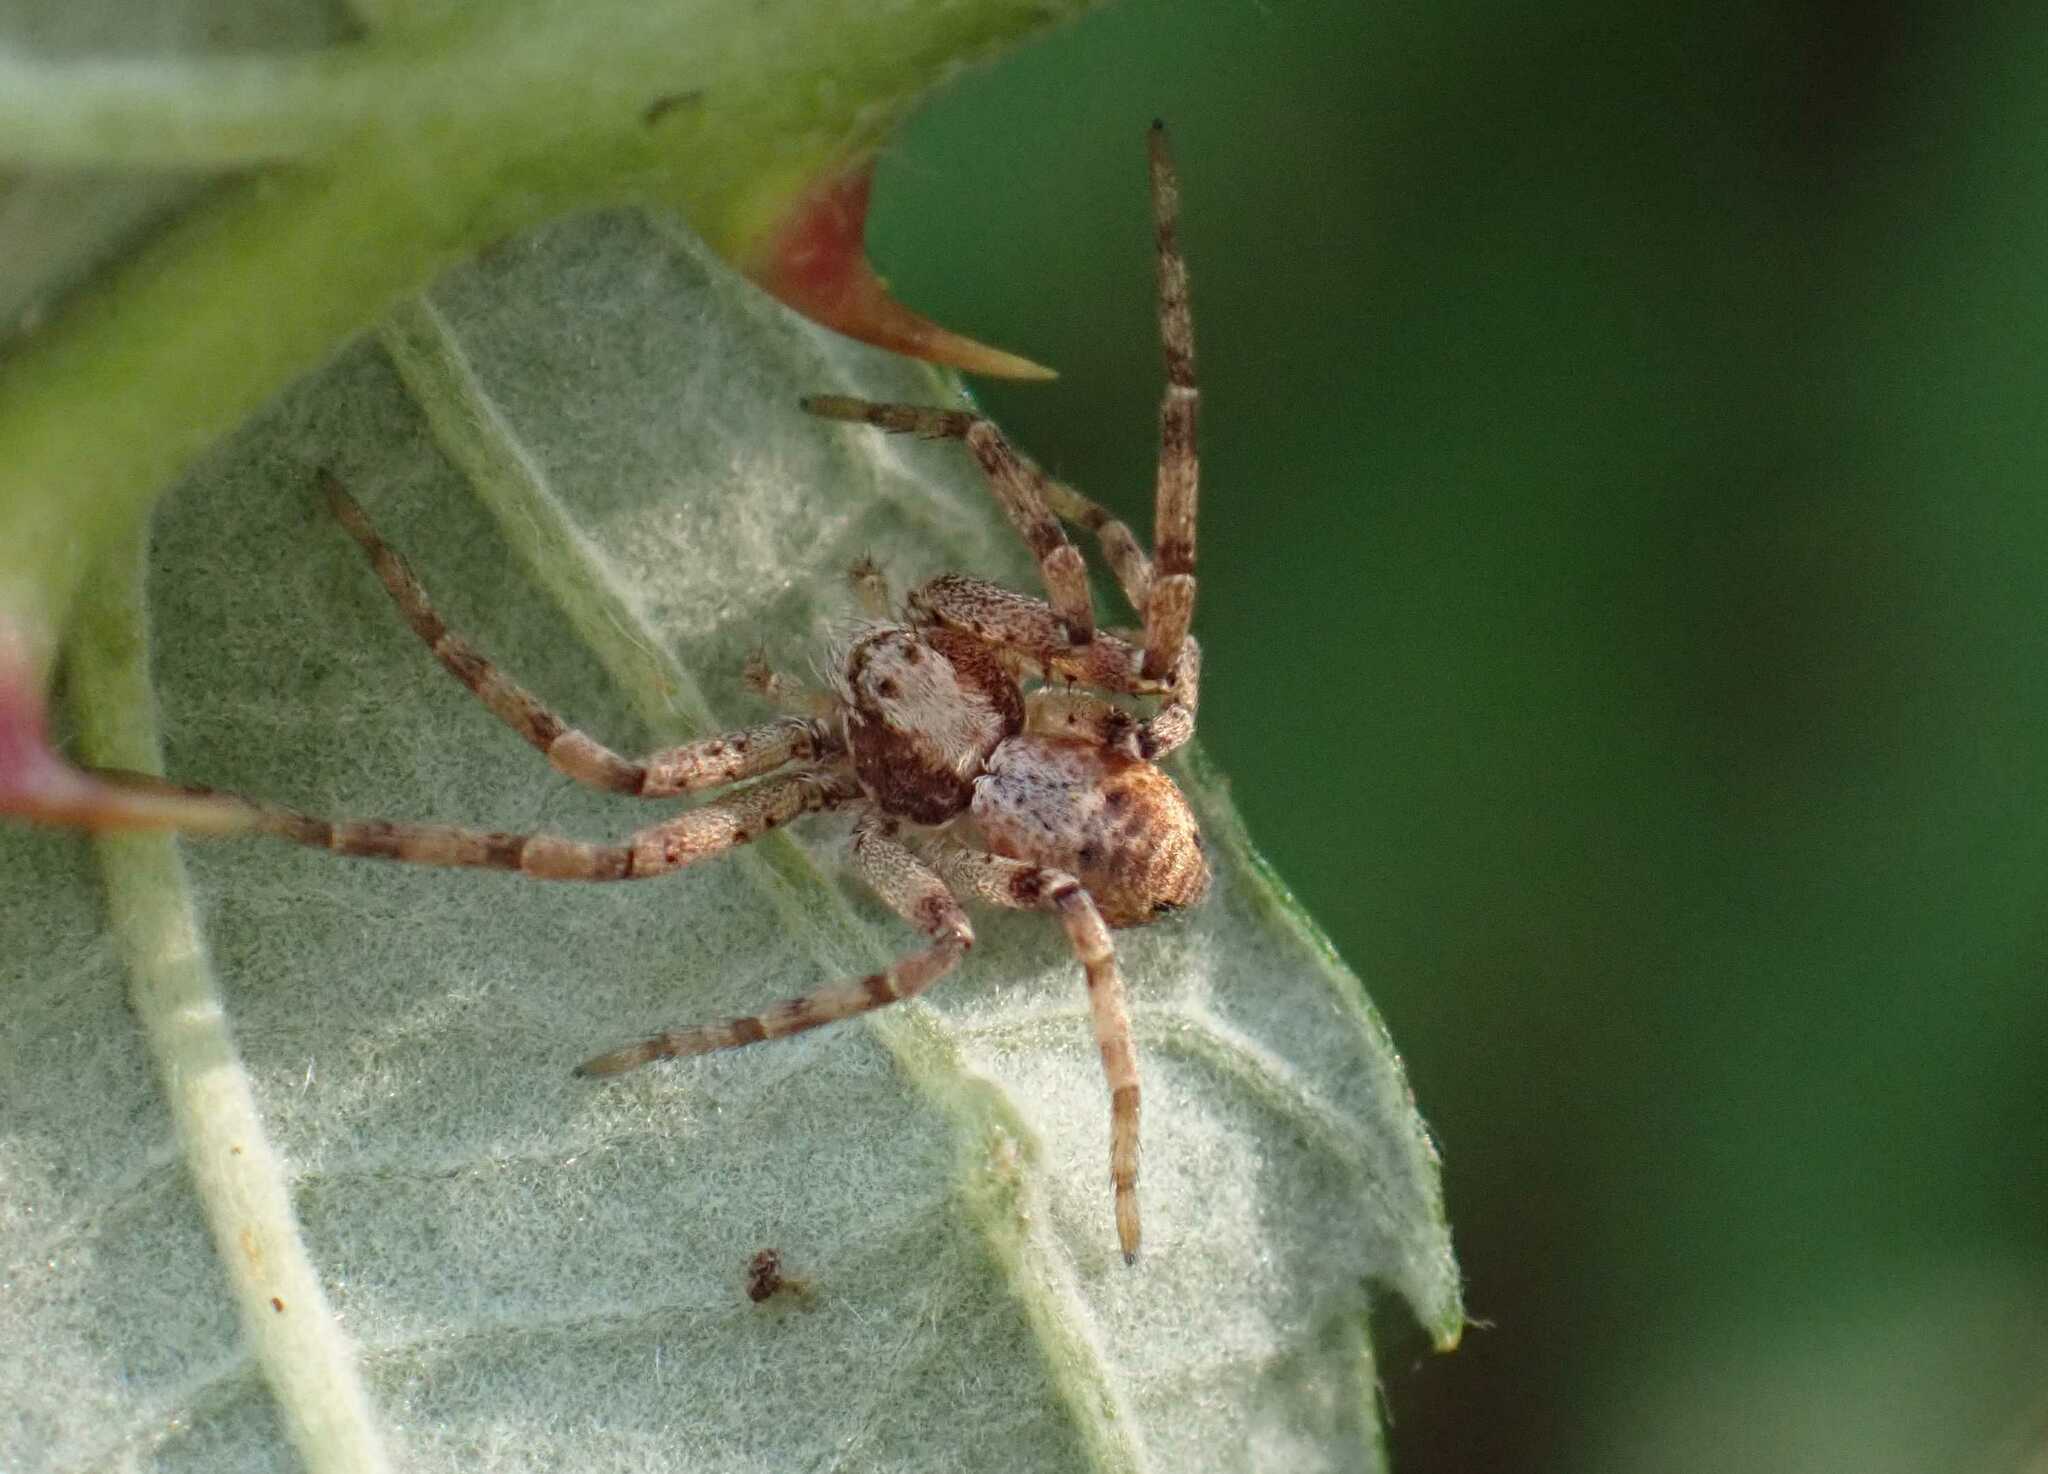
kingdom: Animalia
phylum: Arthropoda
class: Arachnida
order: Araneae
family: Philodromidae
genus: Philodromus
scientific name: Philodromus
